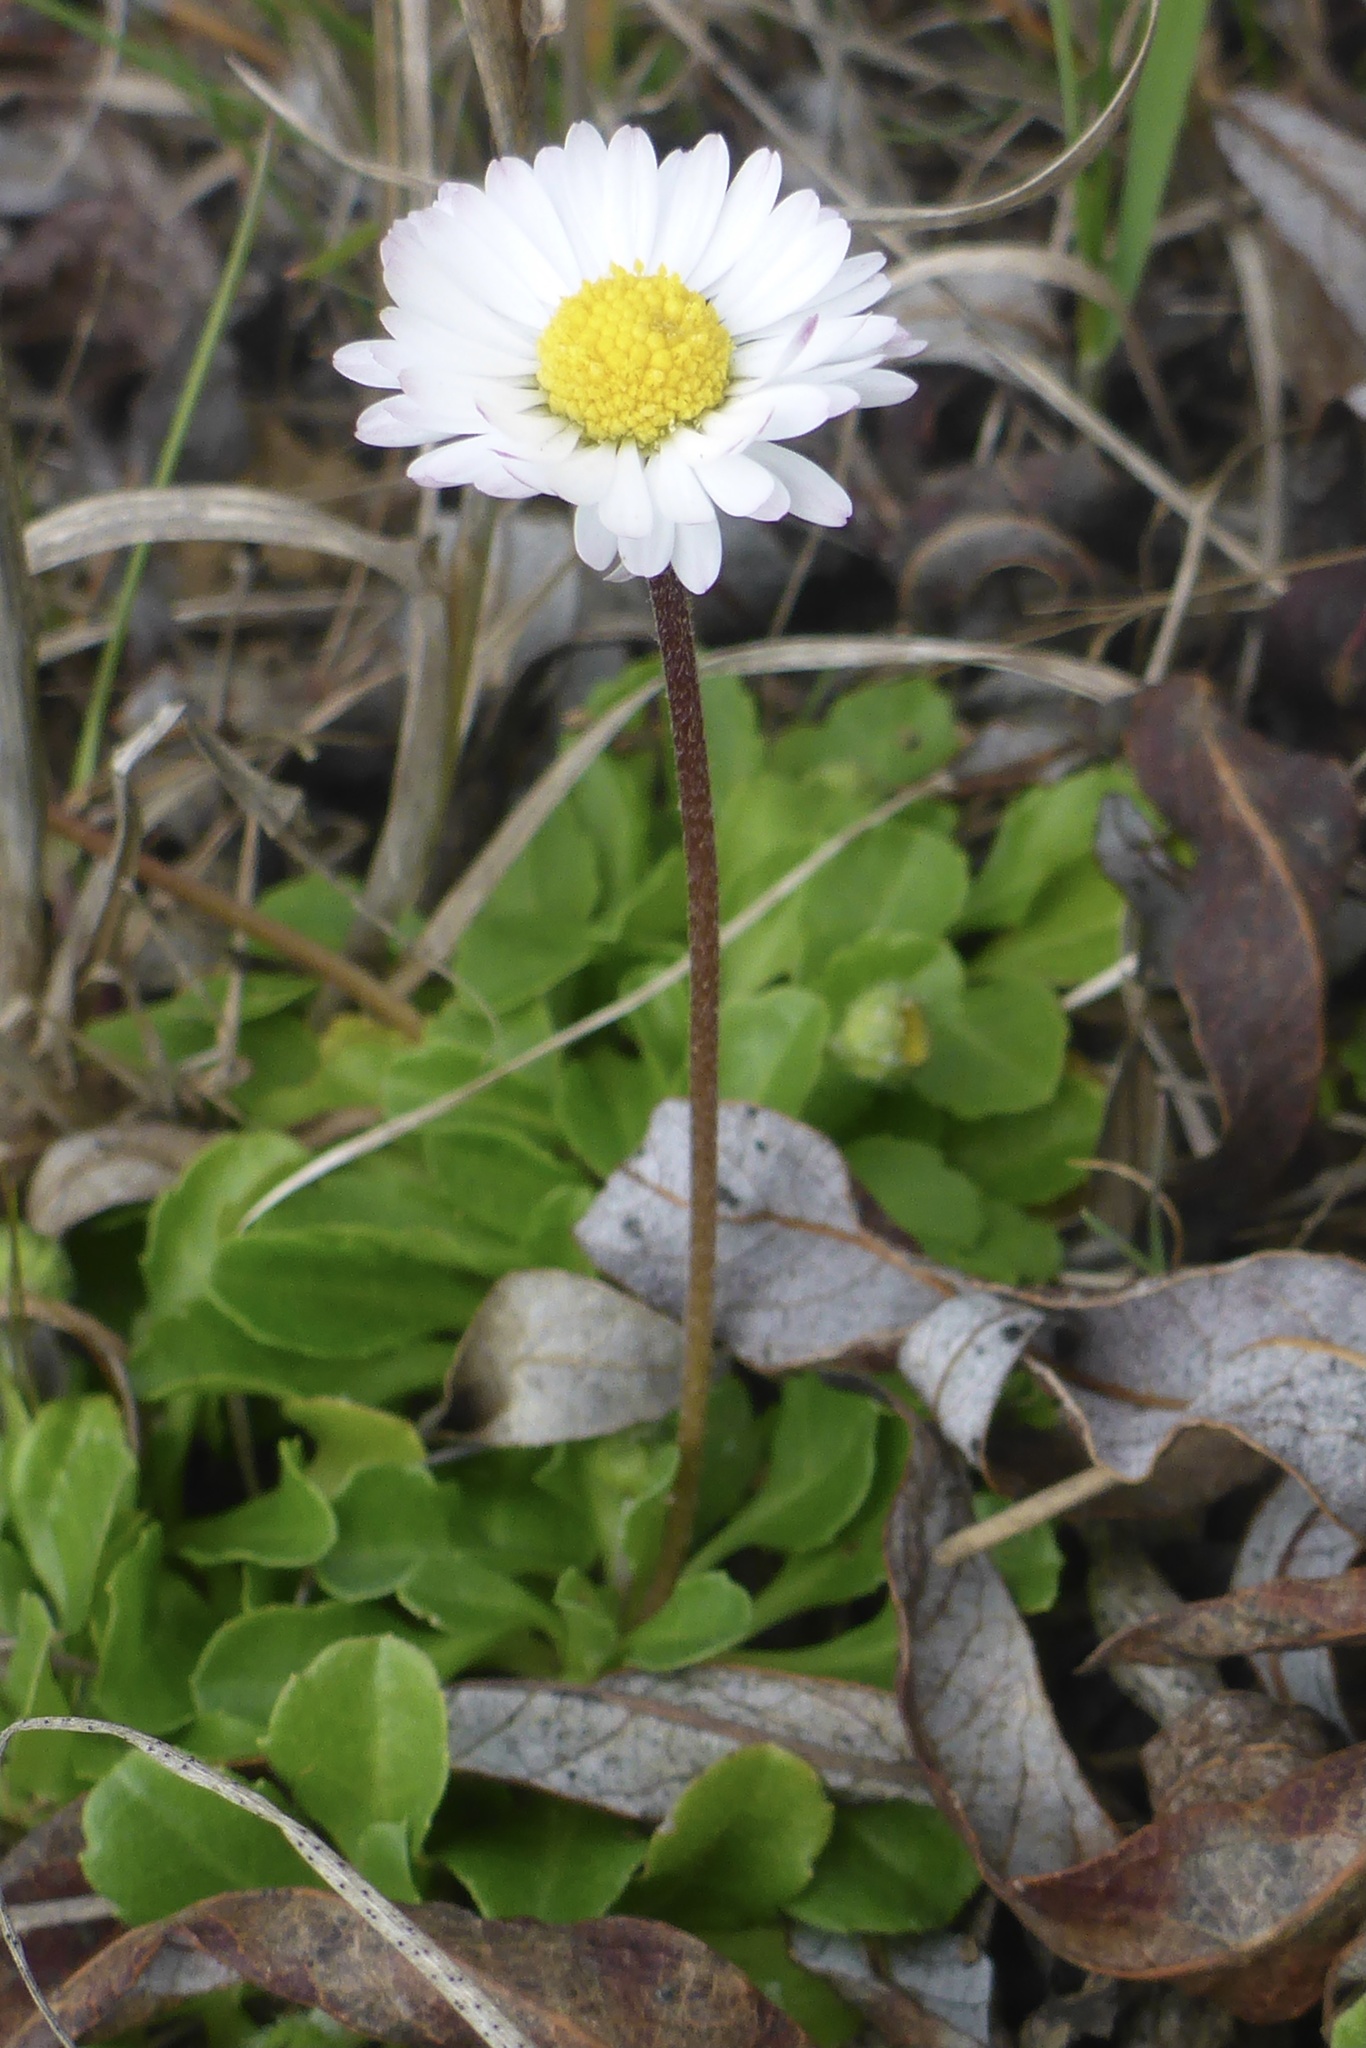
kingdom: Plantae
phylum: Tracheophyta
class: Magnoliopsida
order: Asterales
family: Asteraceae
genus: Bellis
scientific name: Bellis perennis
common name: Lawndaisy
